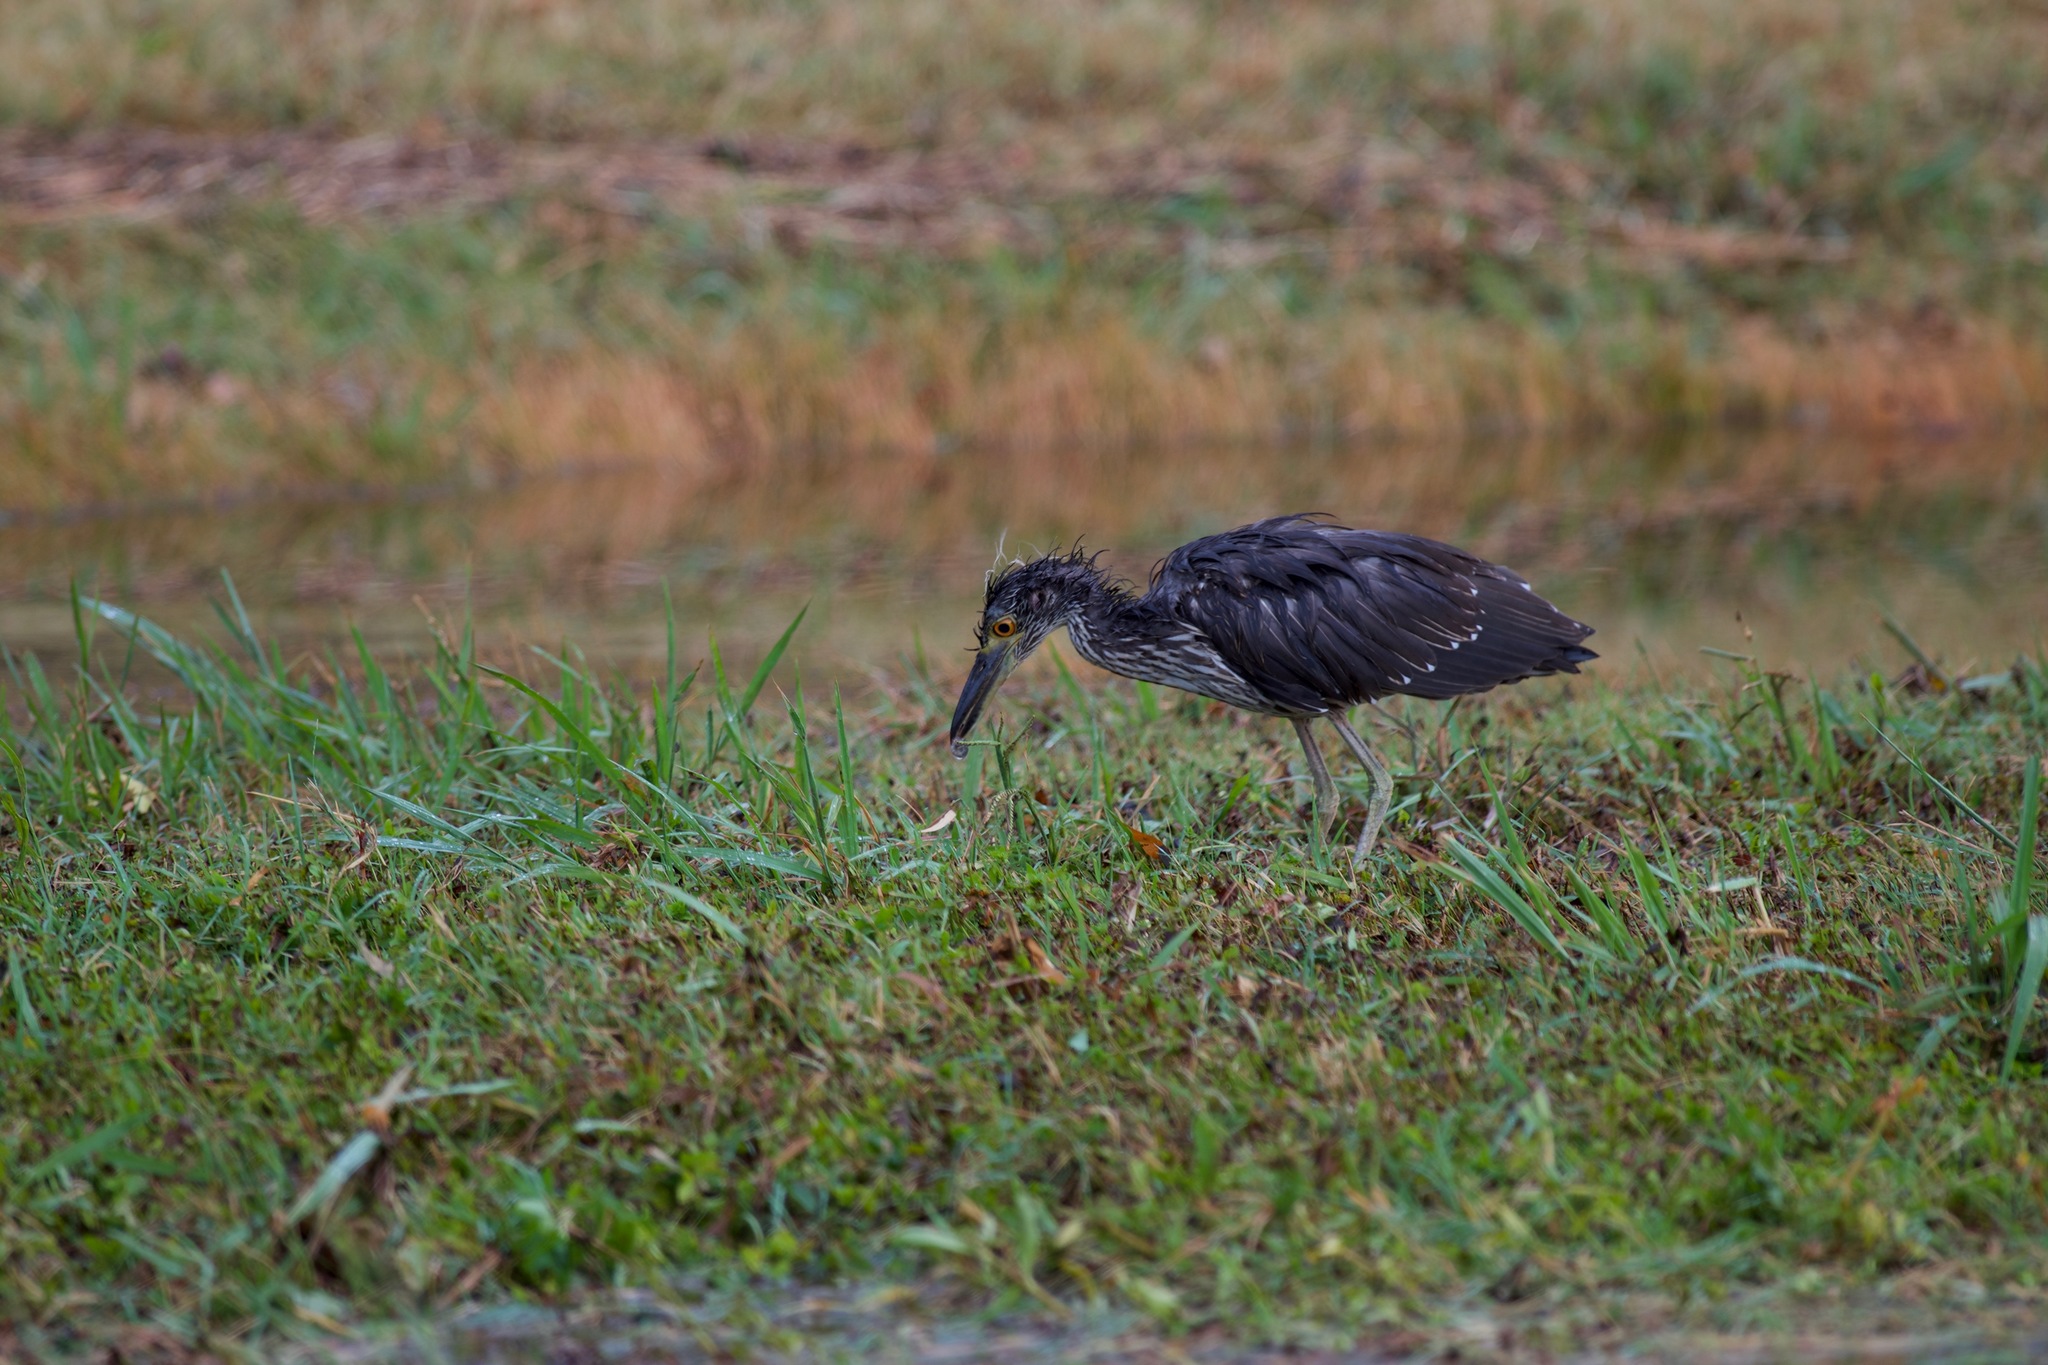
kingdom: Animalia
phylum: Chordata
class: Aves
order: Pelecaniformes
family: Ardeidae
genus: Nyctanassa
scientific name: Nyctanassa violacea
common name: Yellow-crowned night heron
